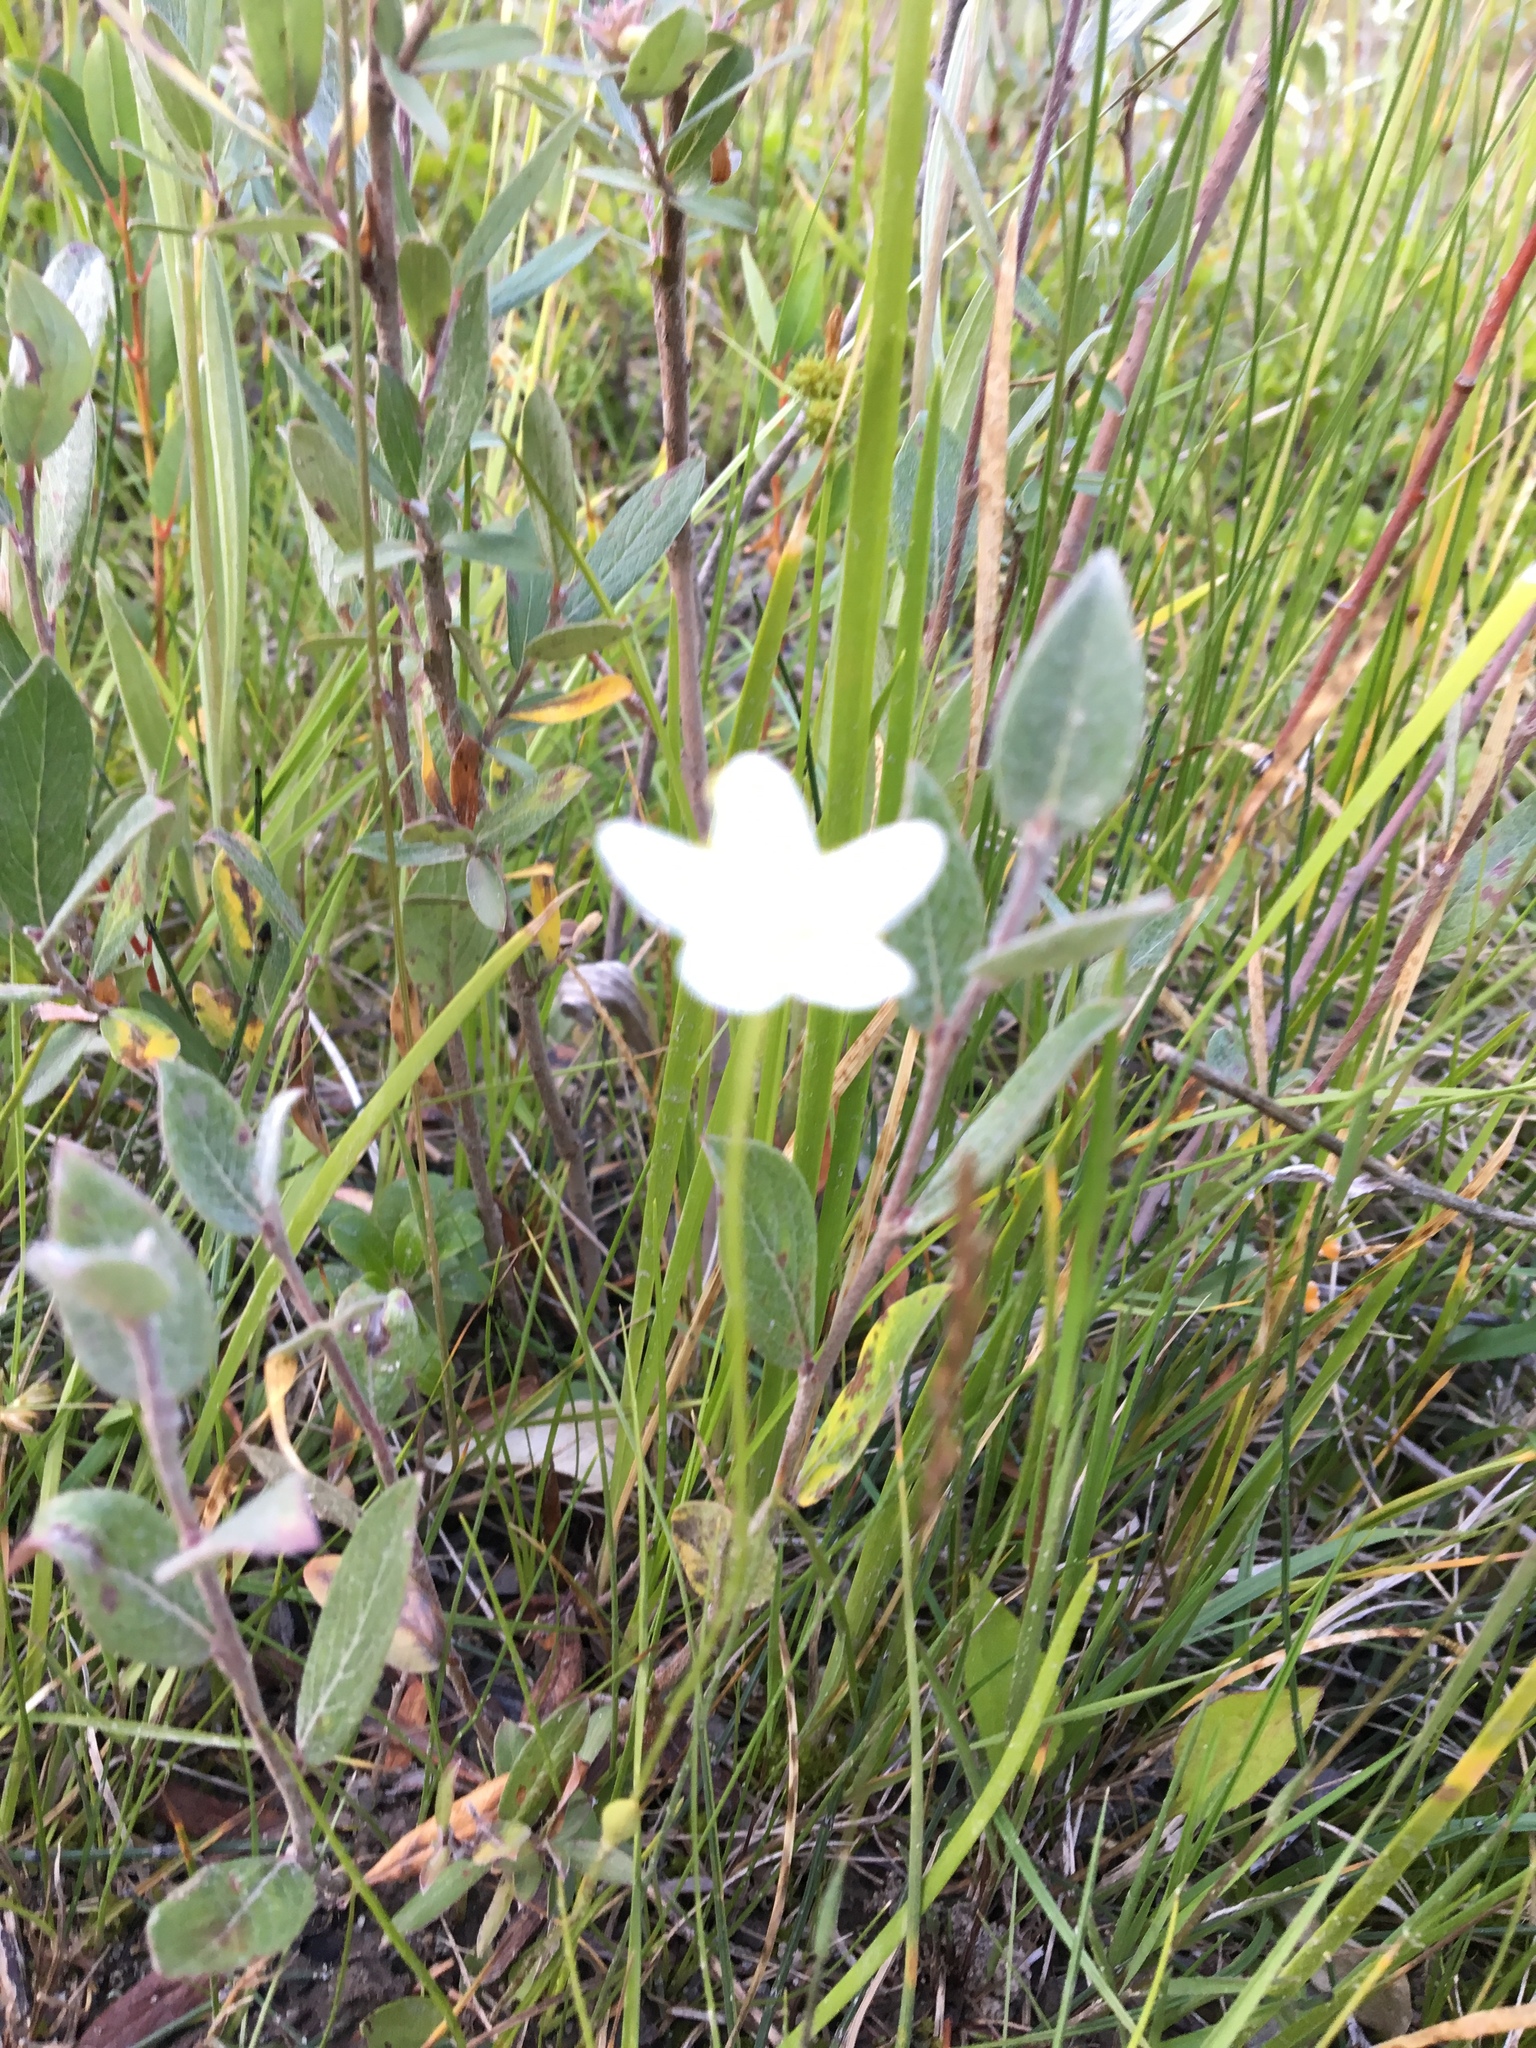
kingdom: Plantae
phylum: Tracheophyta
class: Magnoliopsida
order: Celastrales
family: Parnassiaceae
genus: Parnassia
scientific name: Parnassia palustris
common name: Grass-of-parnassus
